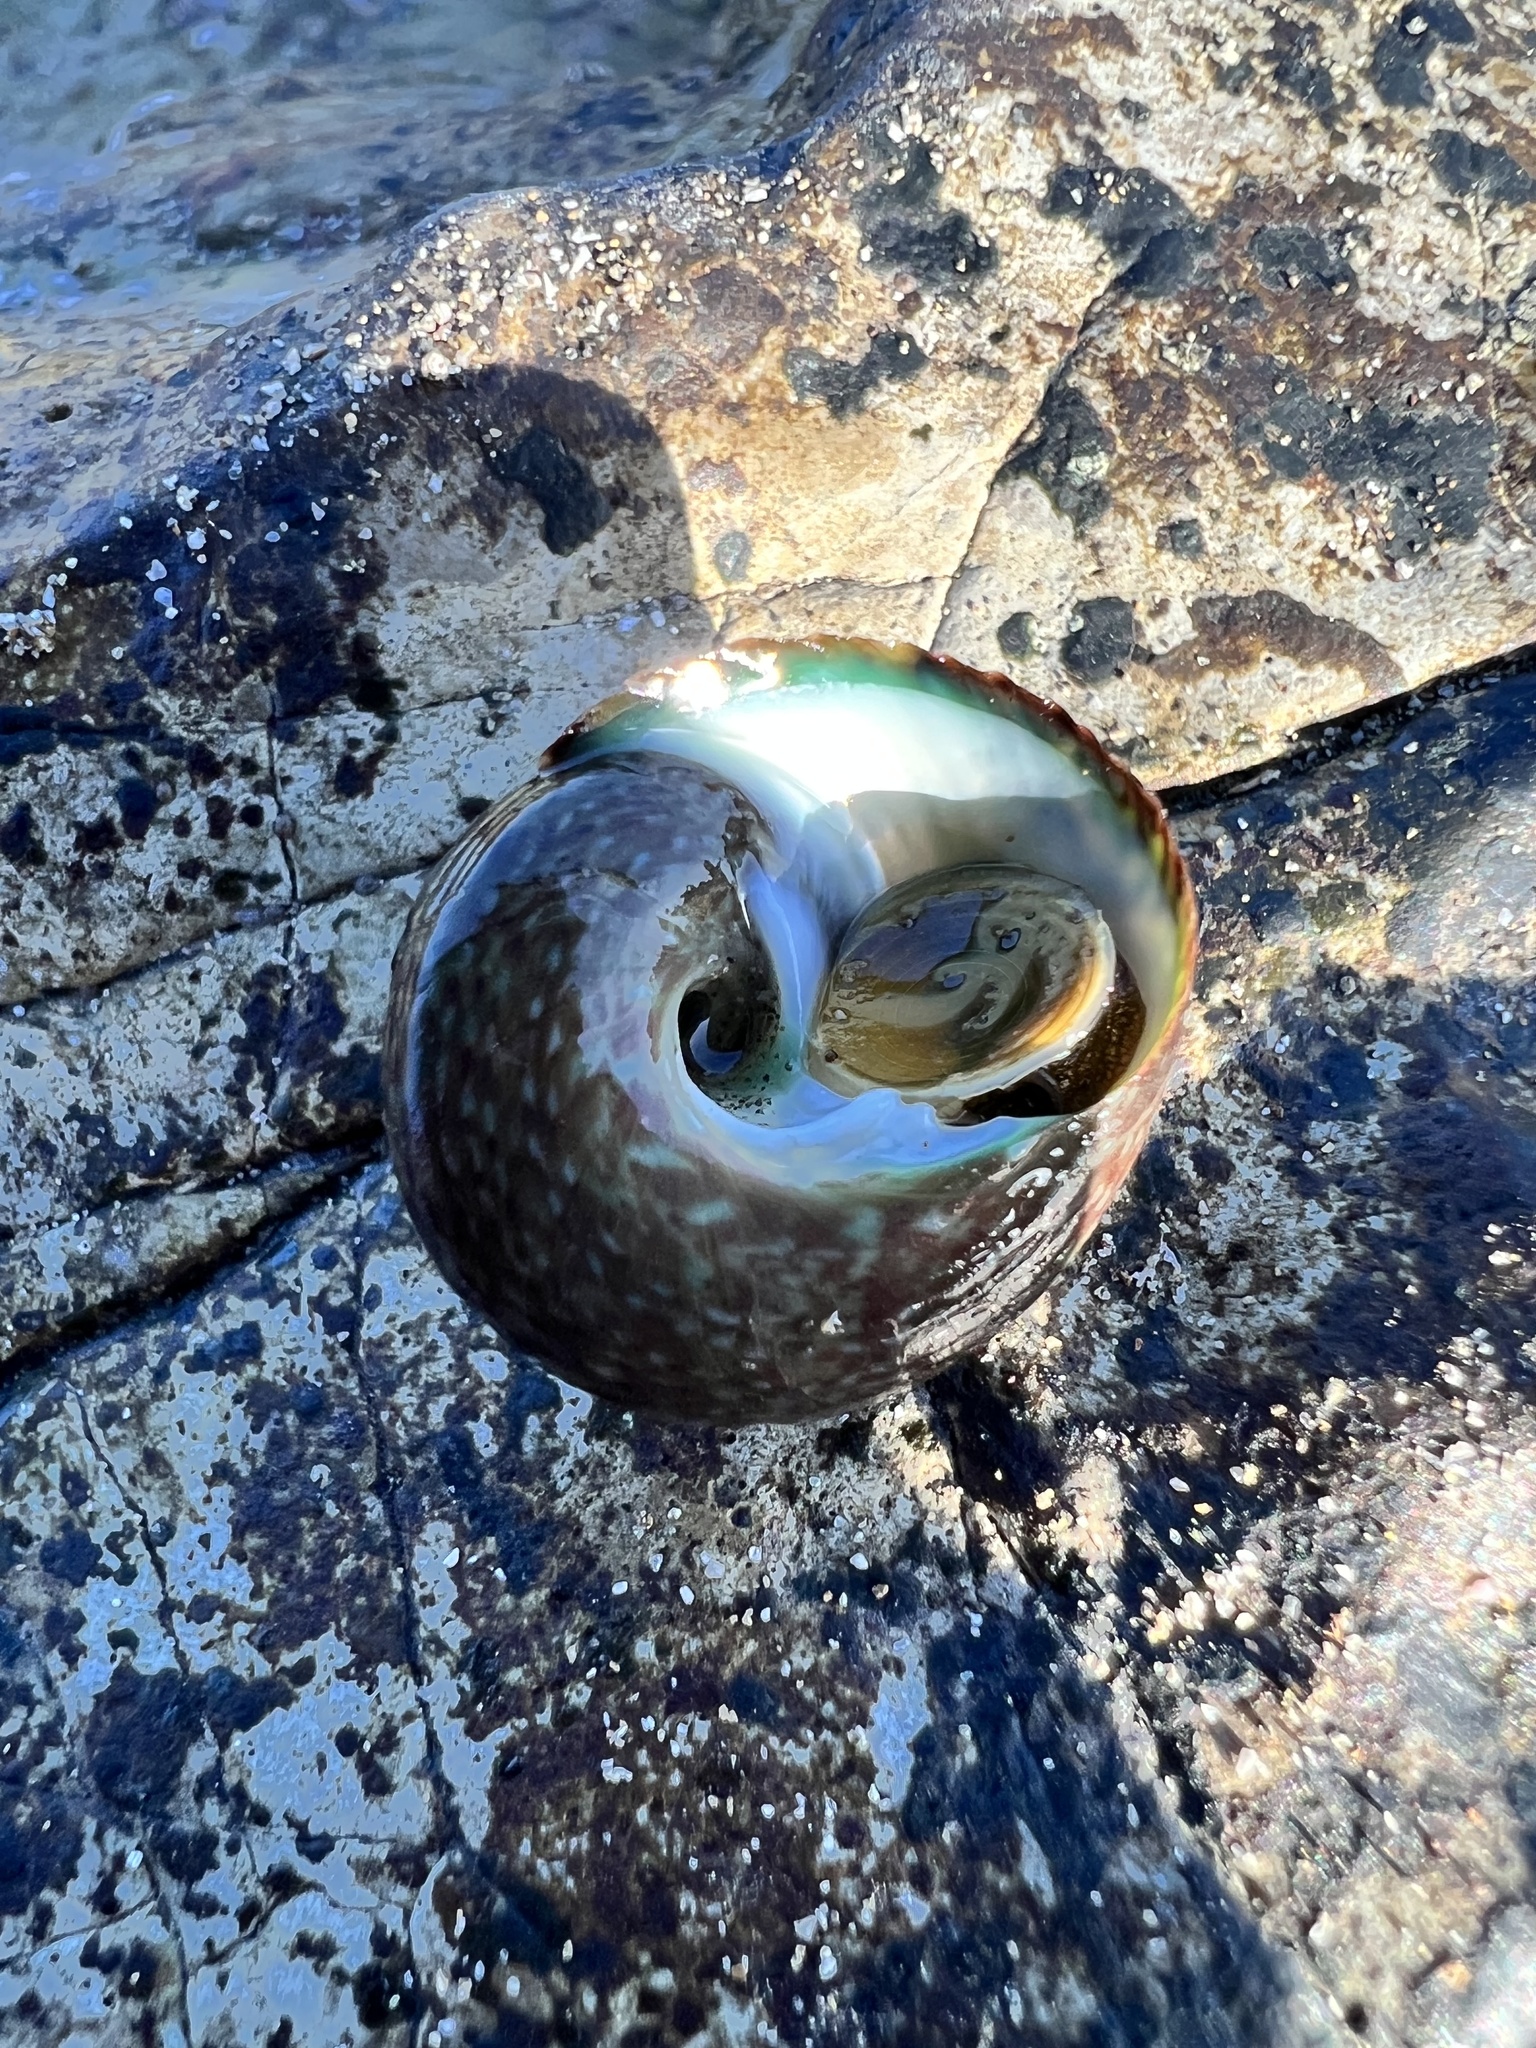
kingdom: Animalia
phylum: Mollusca
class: Gastropoda
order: Trochida
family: Tegulidae
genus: Tegula
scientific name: Tegula verrucosa
